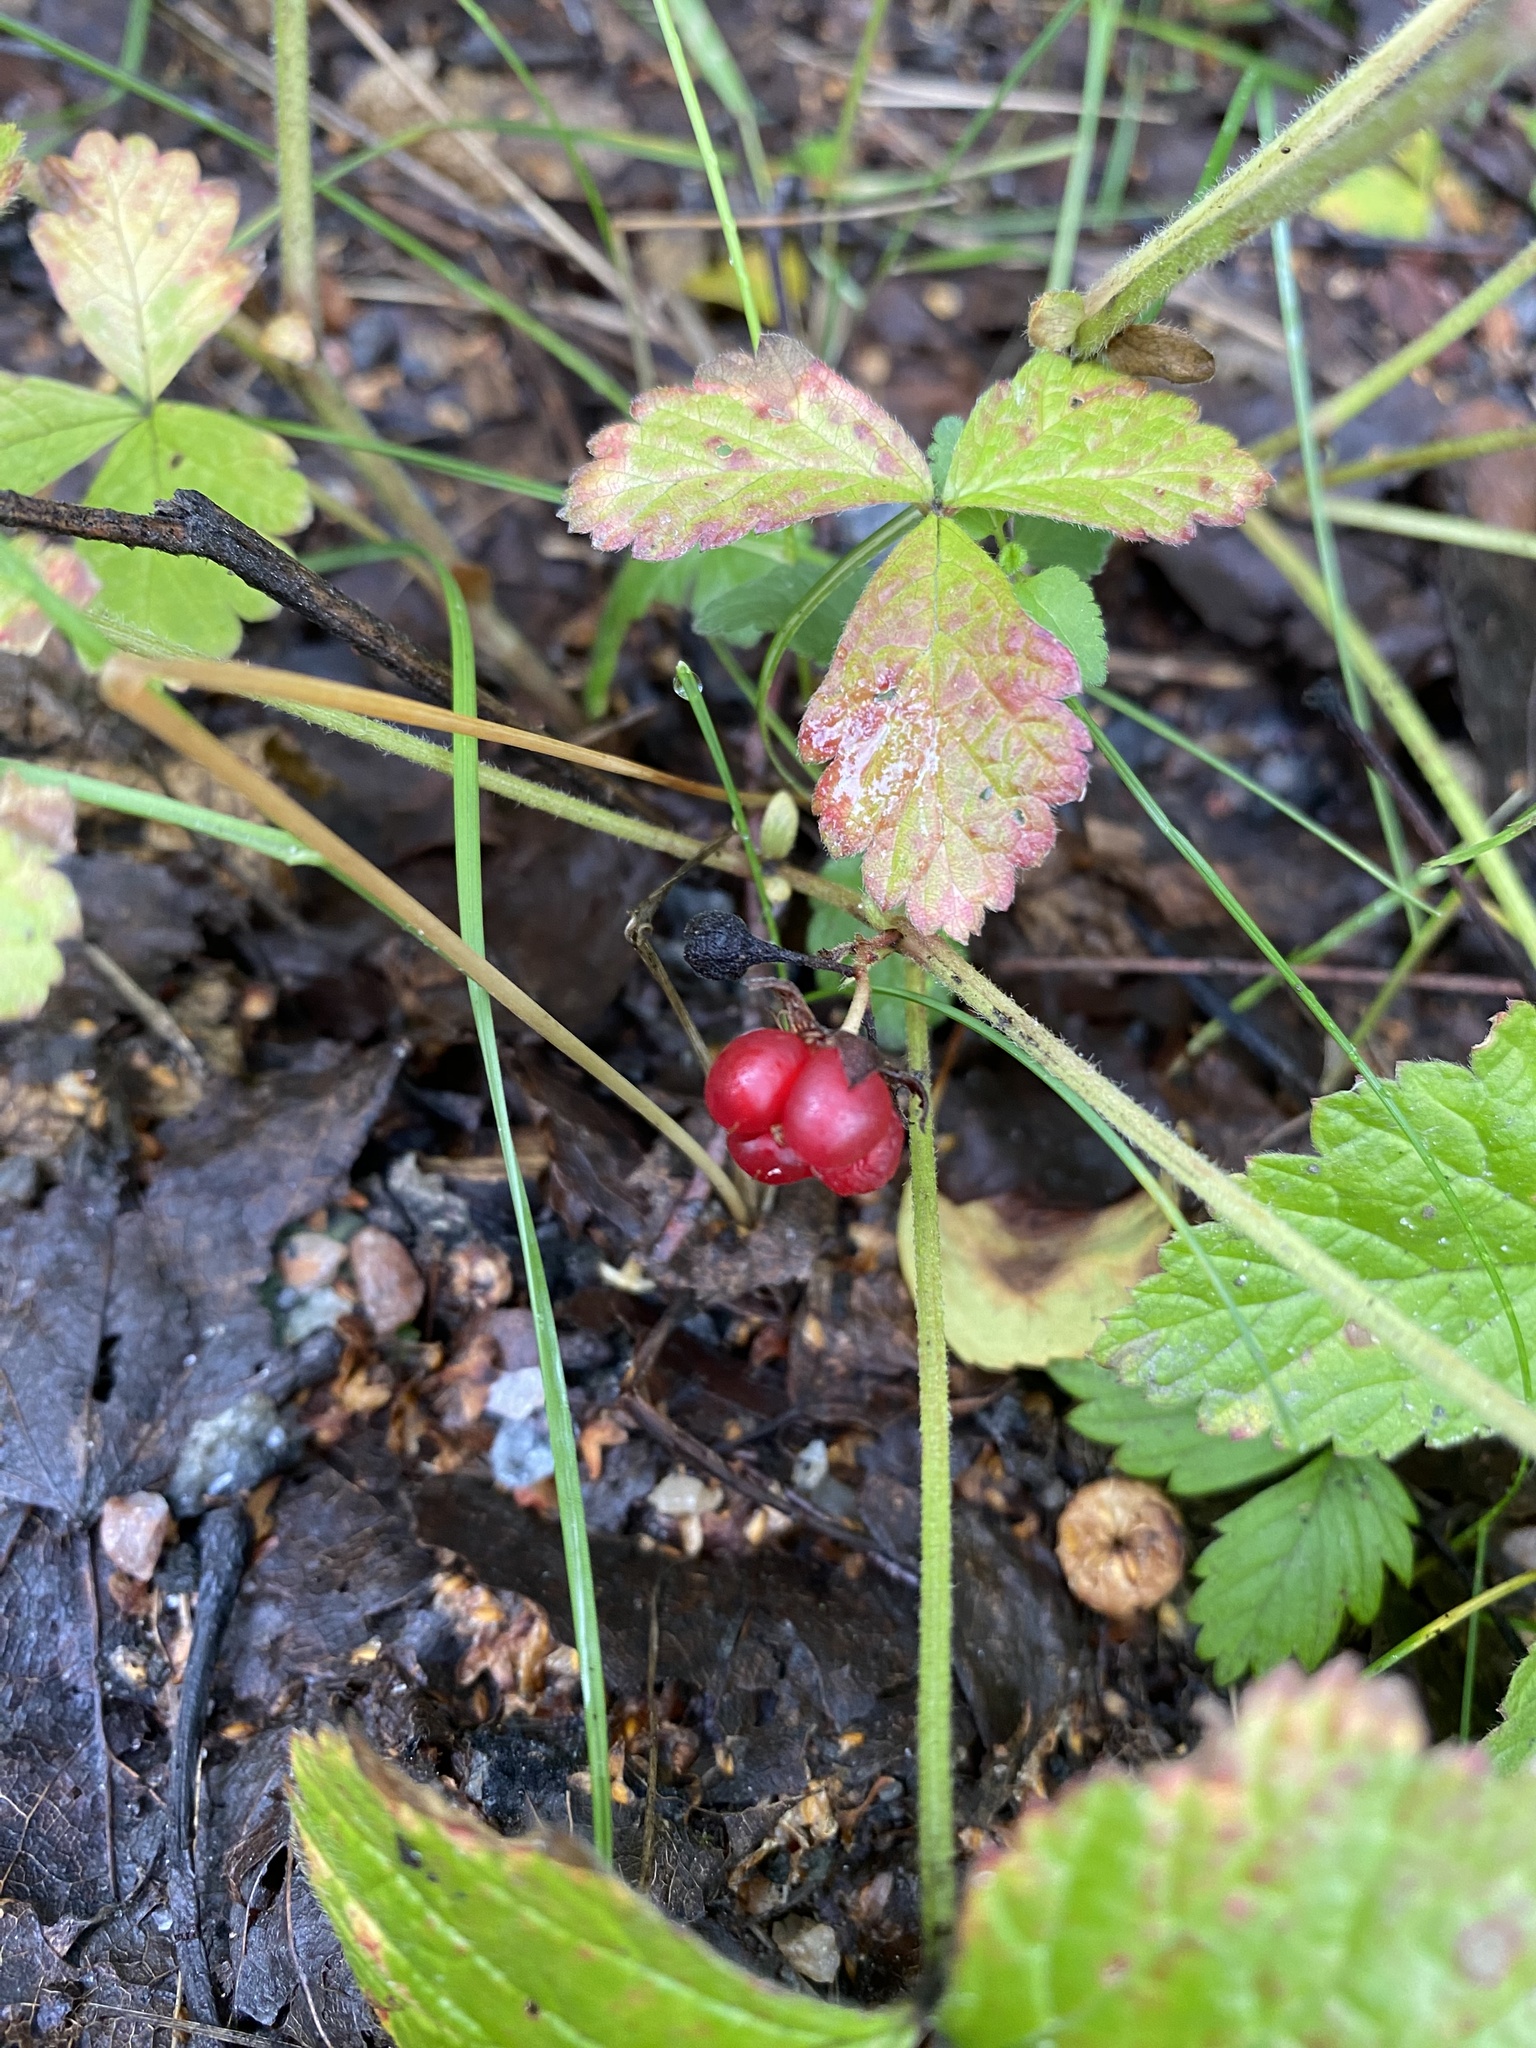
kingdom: Plantae
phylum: Tracheophyta
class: Magnoliopsida
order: Rosales
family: Rosaceae
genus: Rubus
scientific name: Rubus saxatilis
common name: Stone bramble
